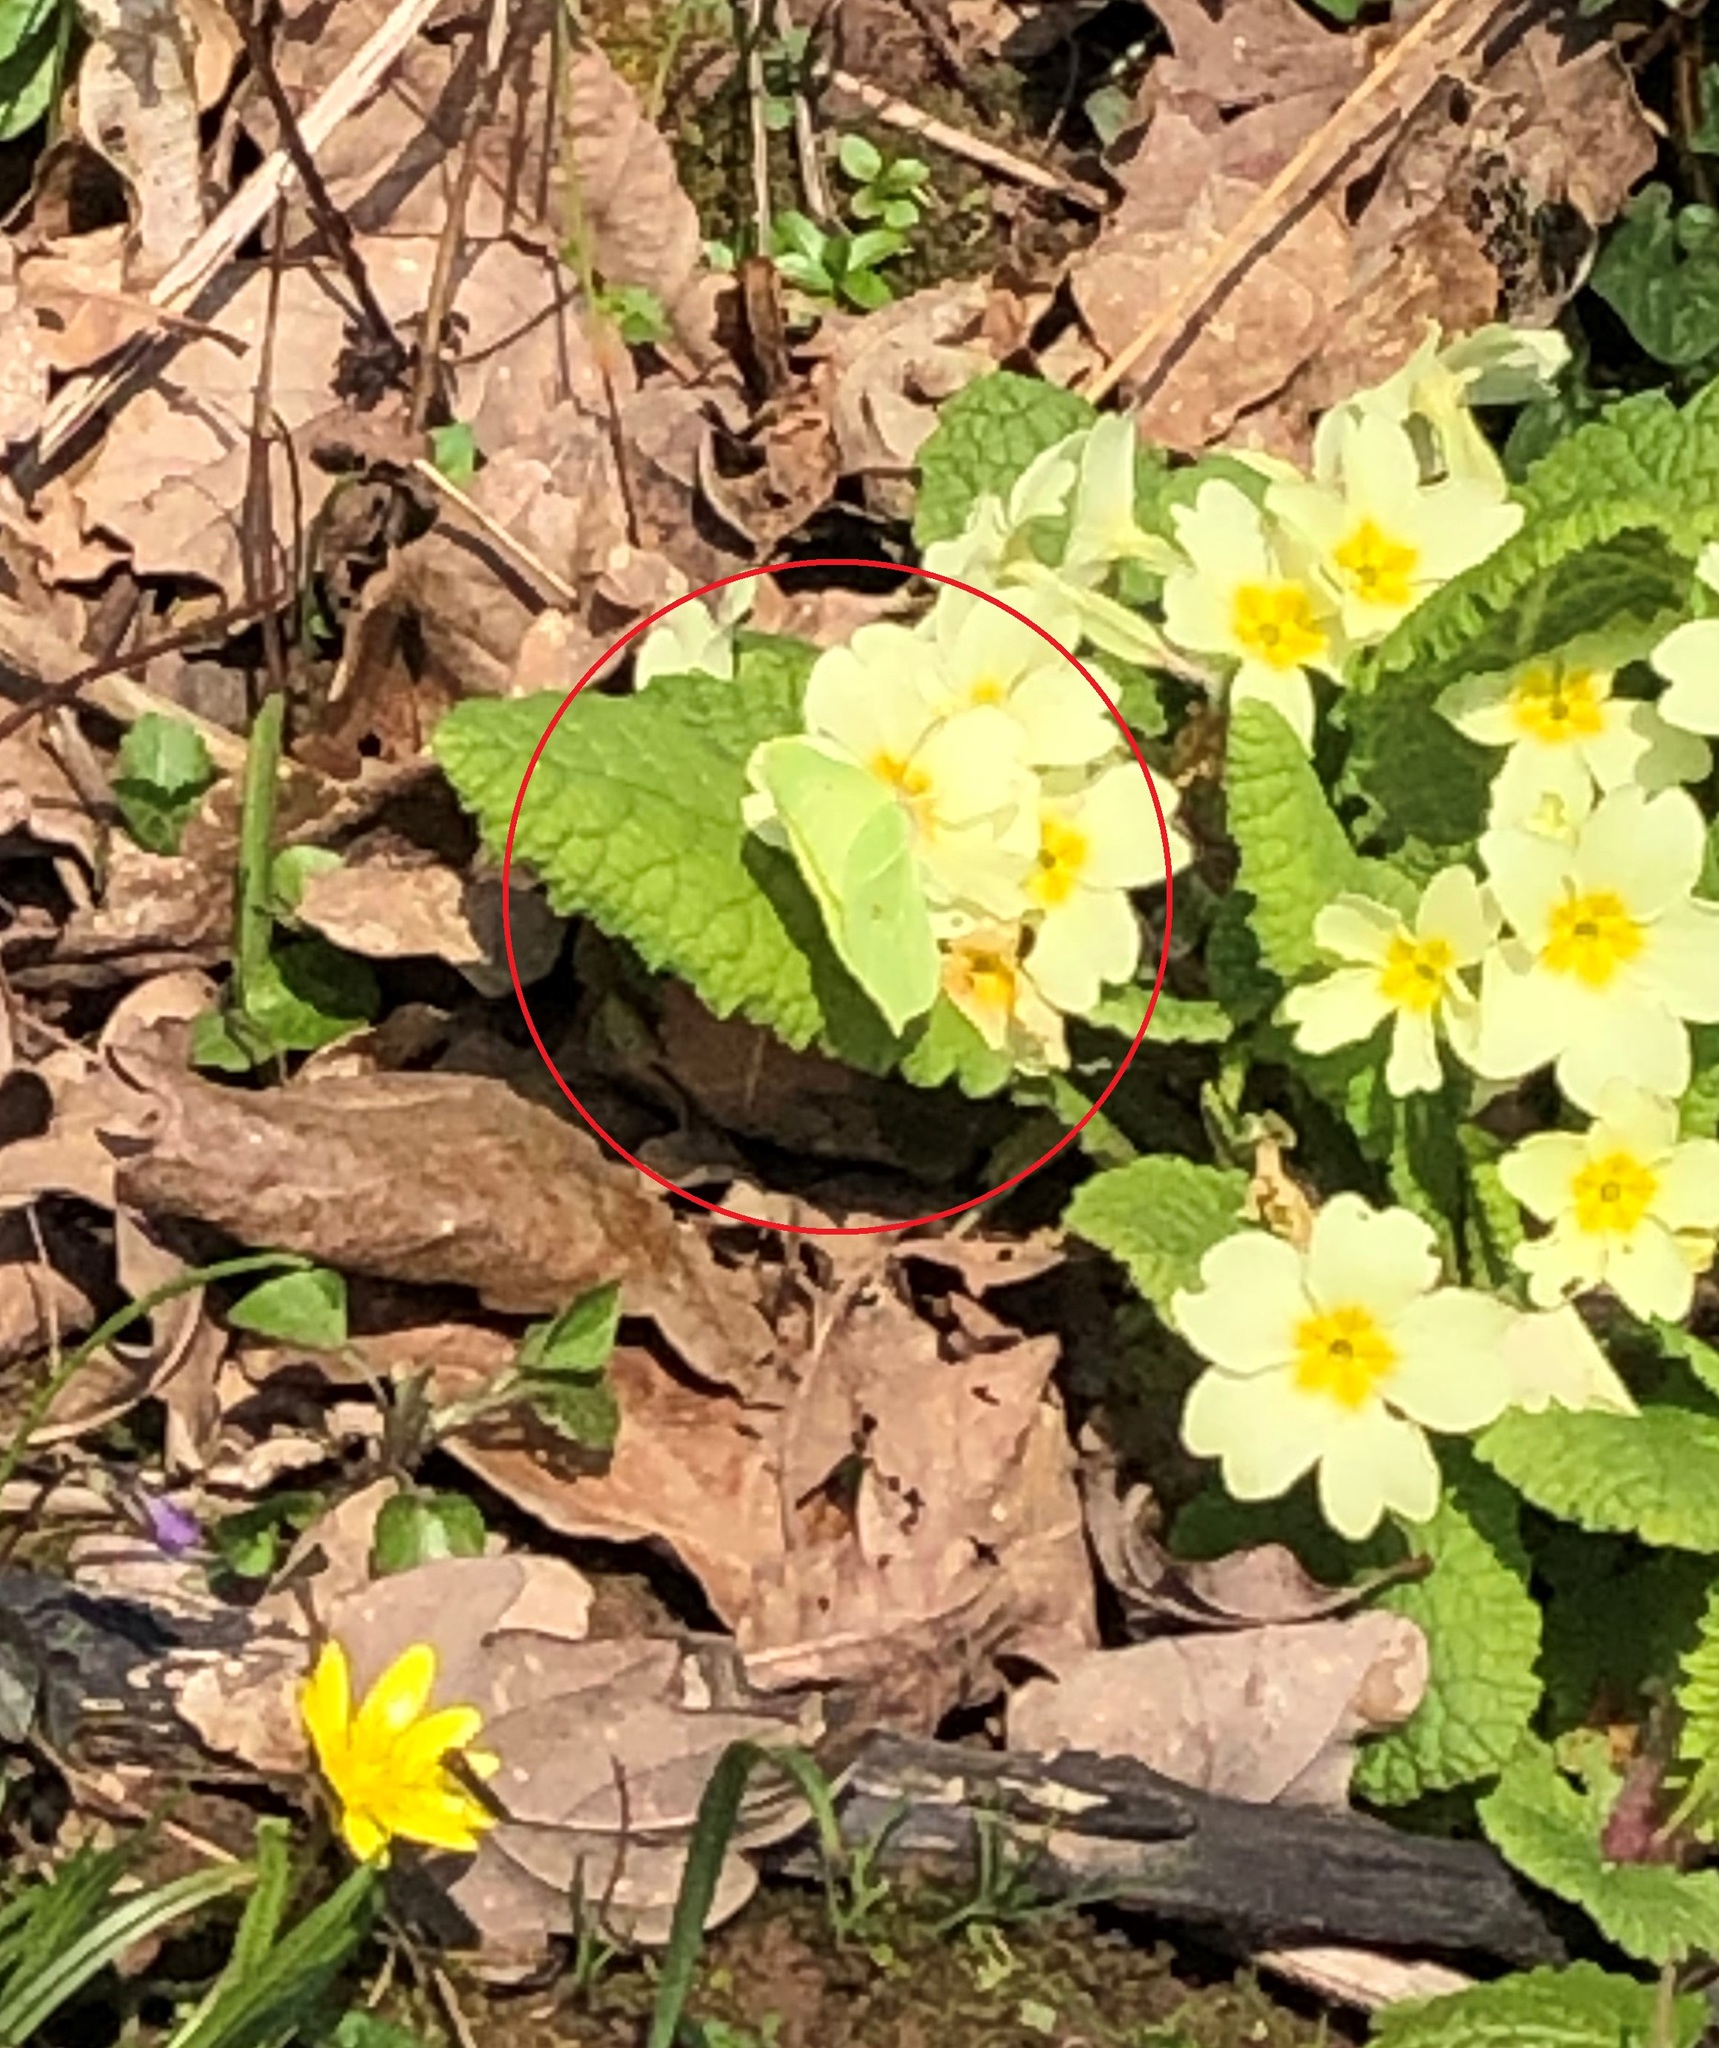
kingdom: Animalia
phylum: Arthropoda
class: Insecta
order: Lepidoptera
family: Pieridae
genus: Gonepteryx
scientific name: Gonepteryx rhamni
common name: Brimstone
